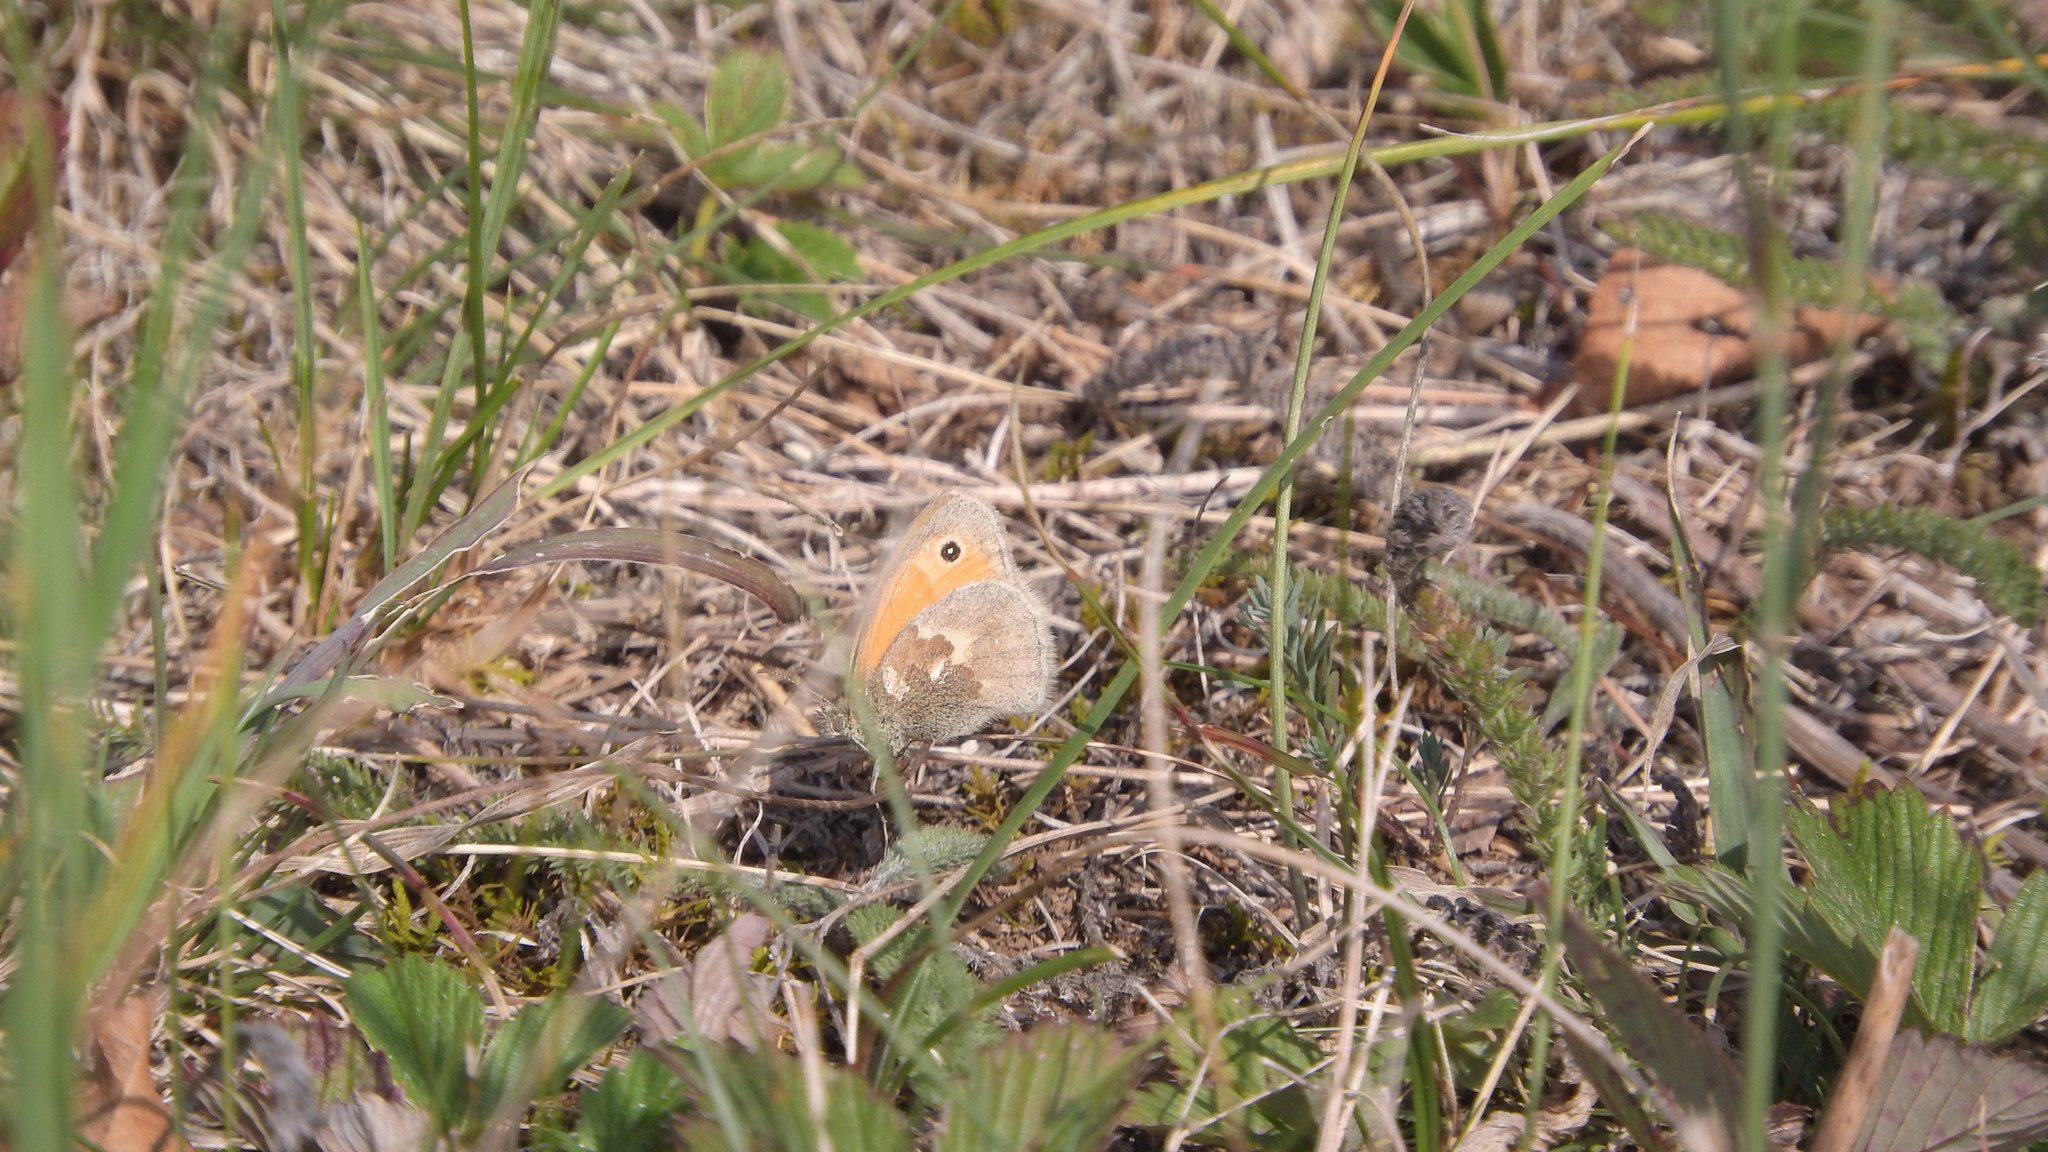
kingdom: Animalia
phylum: Arthropoda
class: Insecta
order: Lepidoptera
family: Nymphalidae
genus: Coenonympha
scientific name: Coenonympha pamphilus
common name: Small heath
